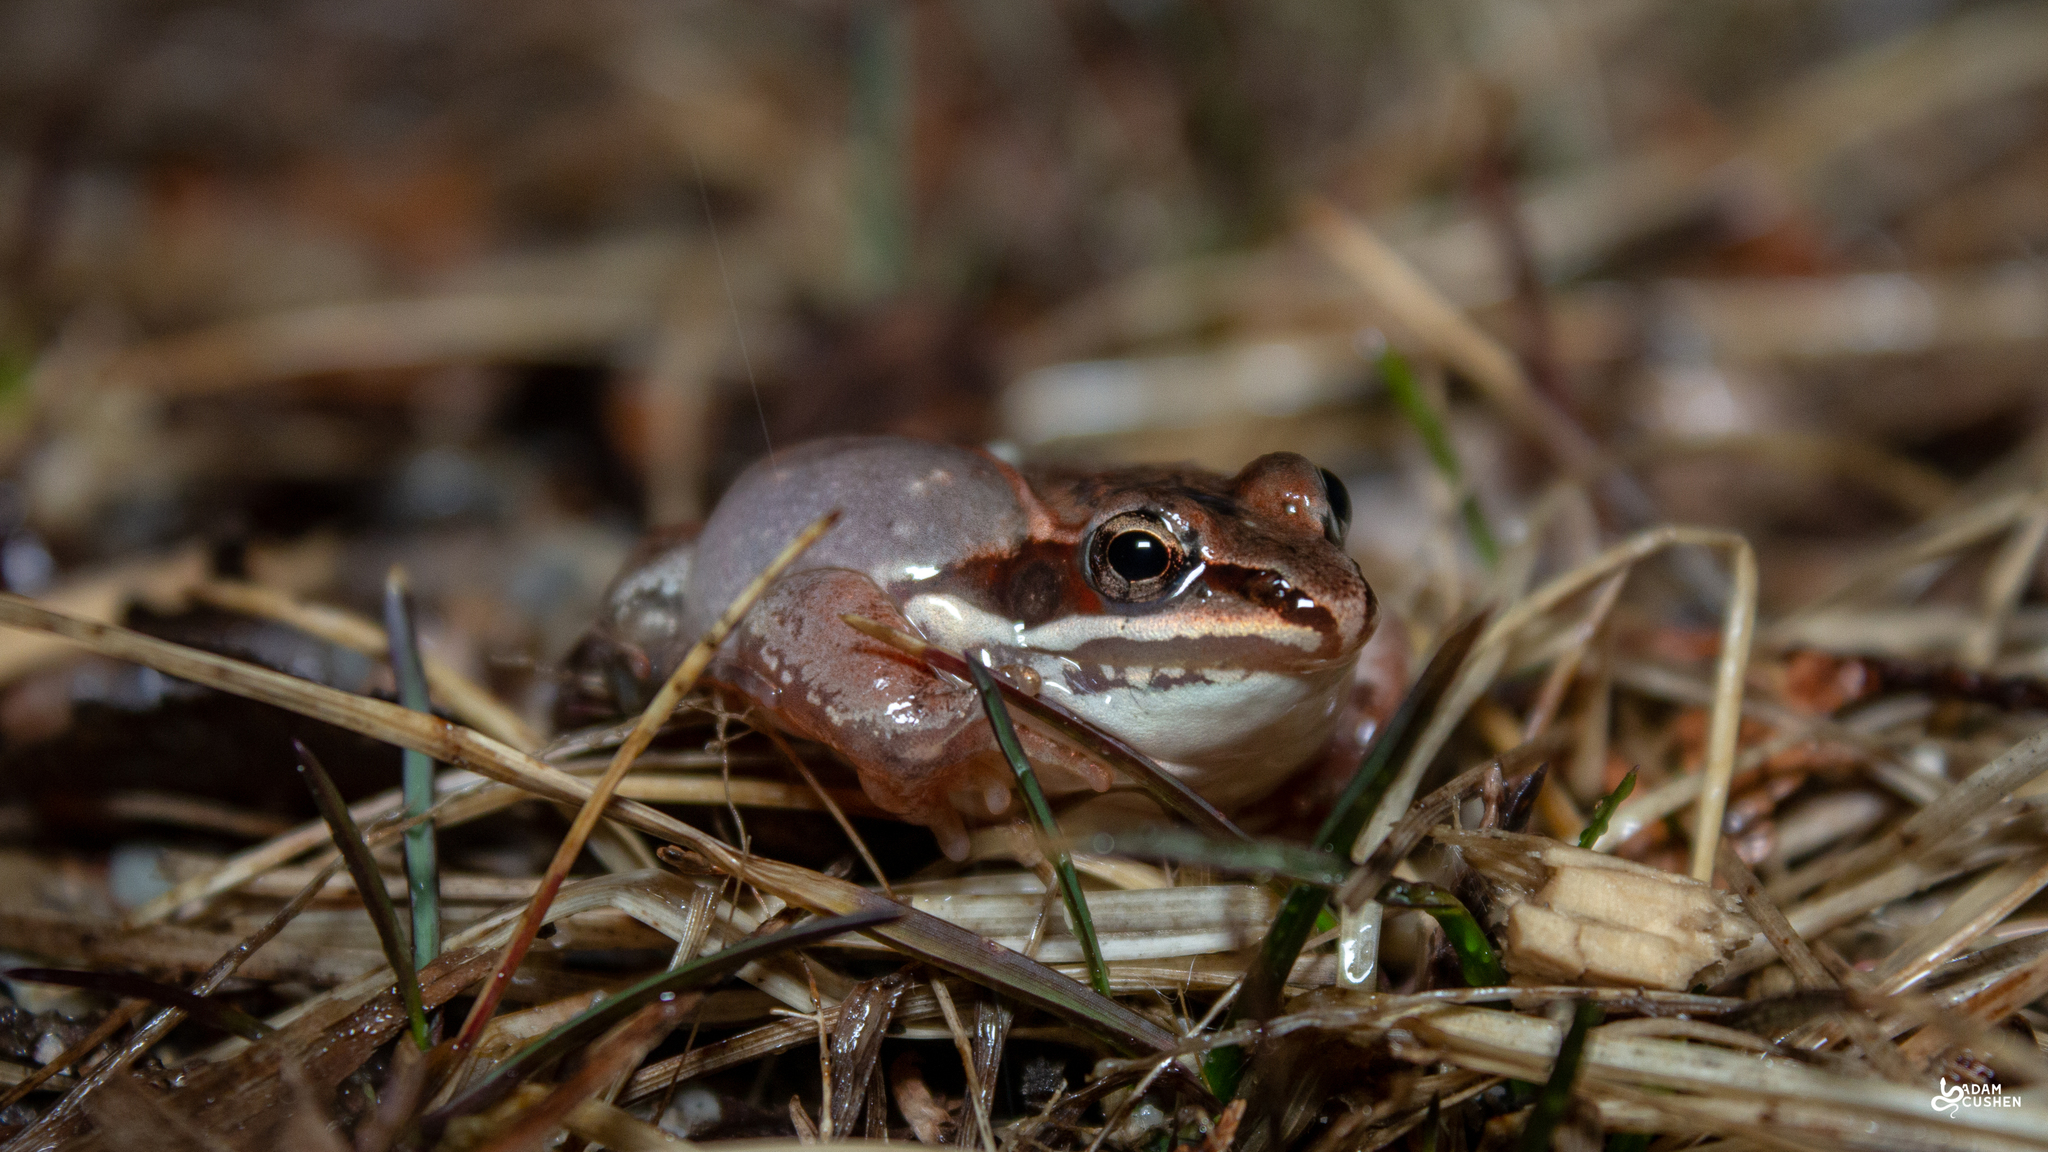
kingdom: Animalia
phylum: Chordata
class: Amphibia
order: Anura
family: Ranidae
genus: Lithobates
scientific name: Lithobates sylvaticus
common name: Wood frog
